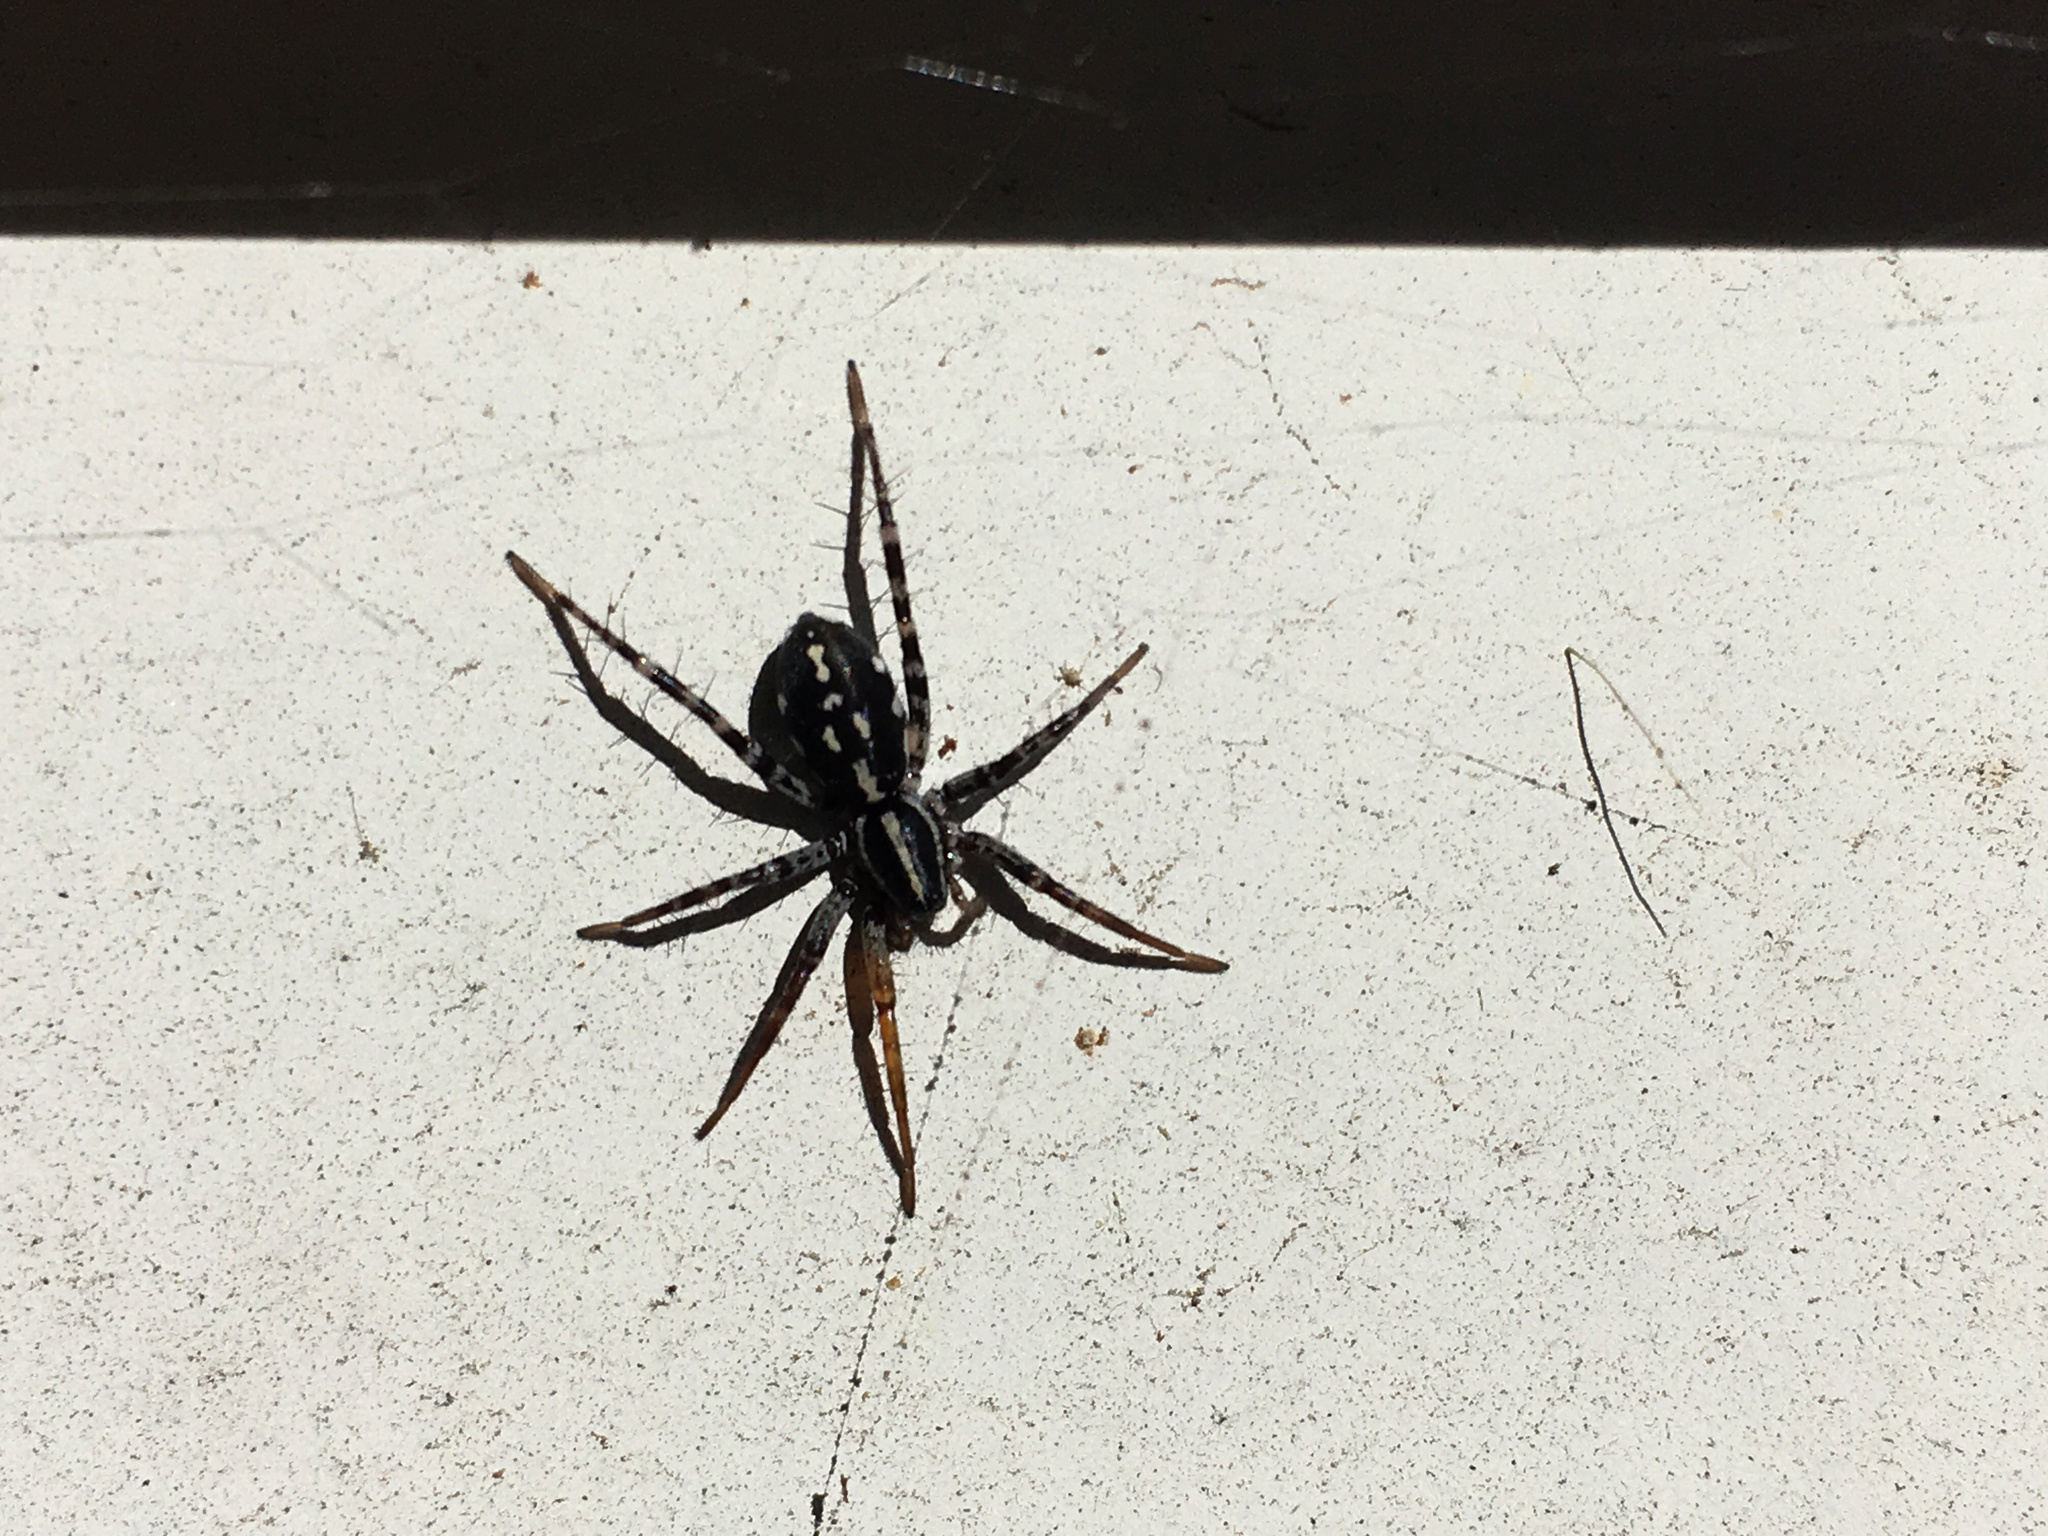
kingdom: Animalia
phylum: Arthropoda
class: Arachnida
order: Araneae
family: Corinnidae
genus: Nyssus
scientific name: Nyssus coloripes
